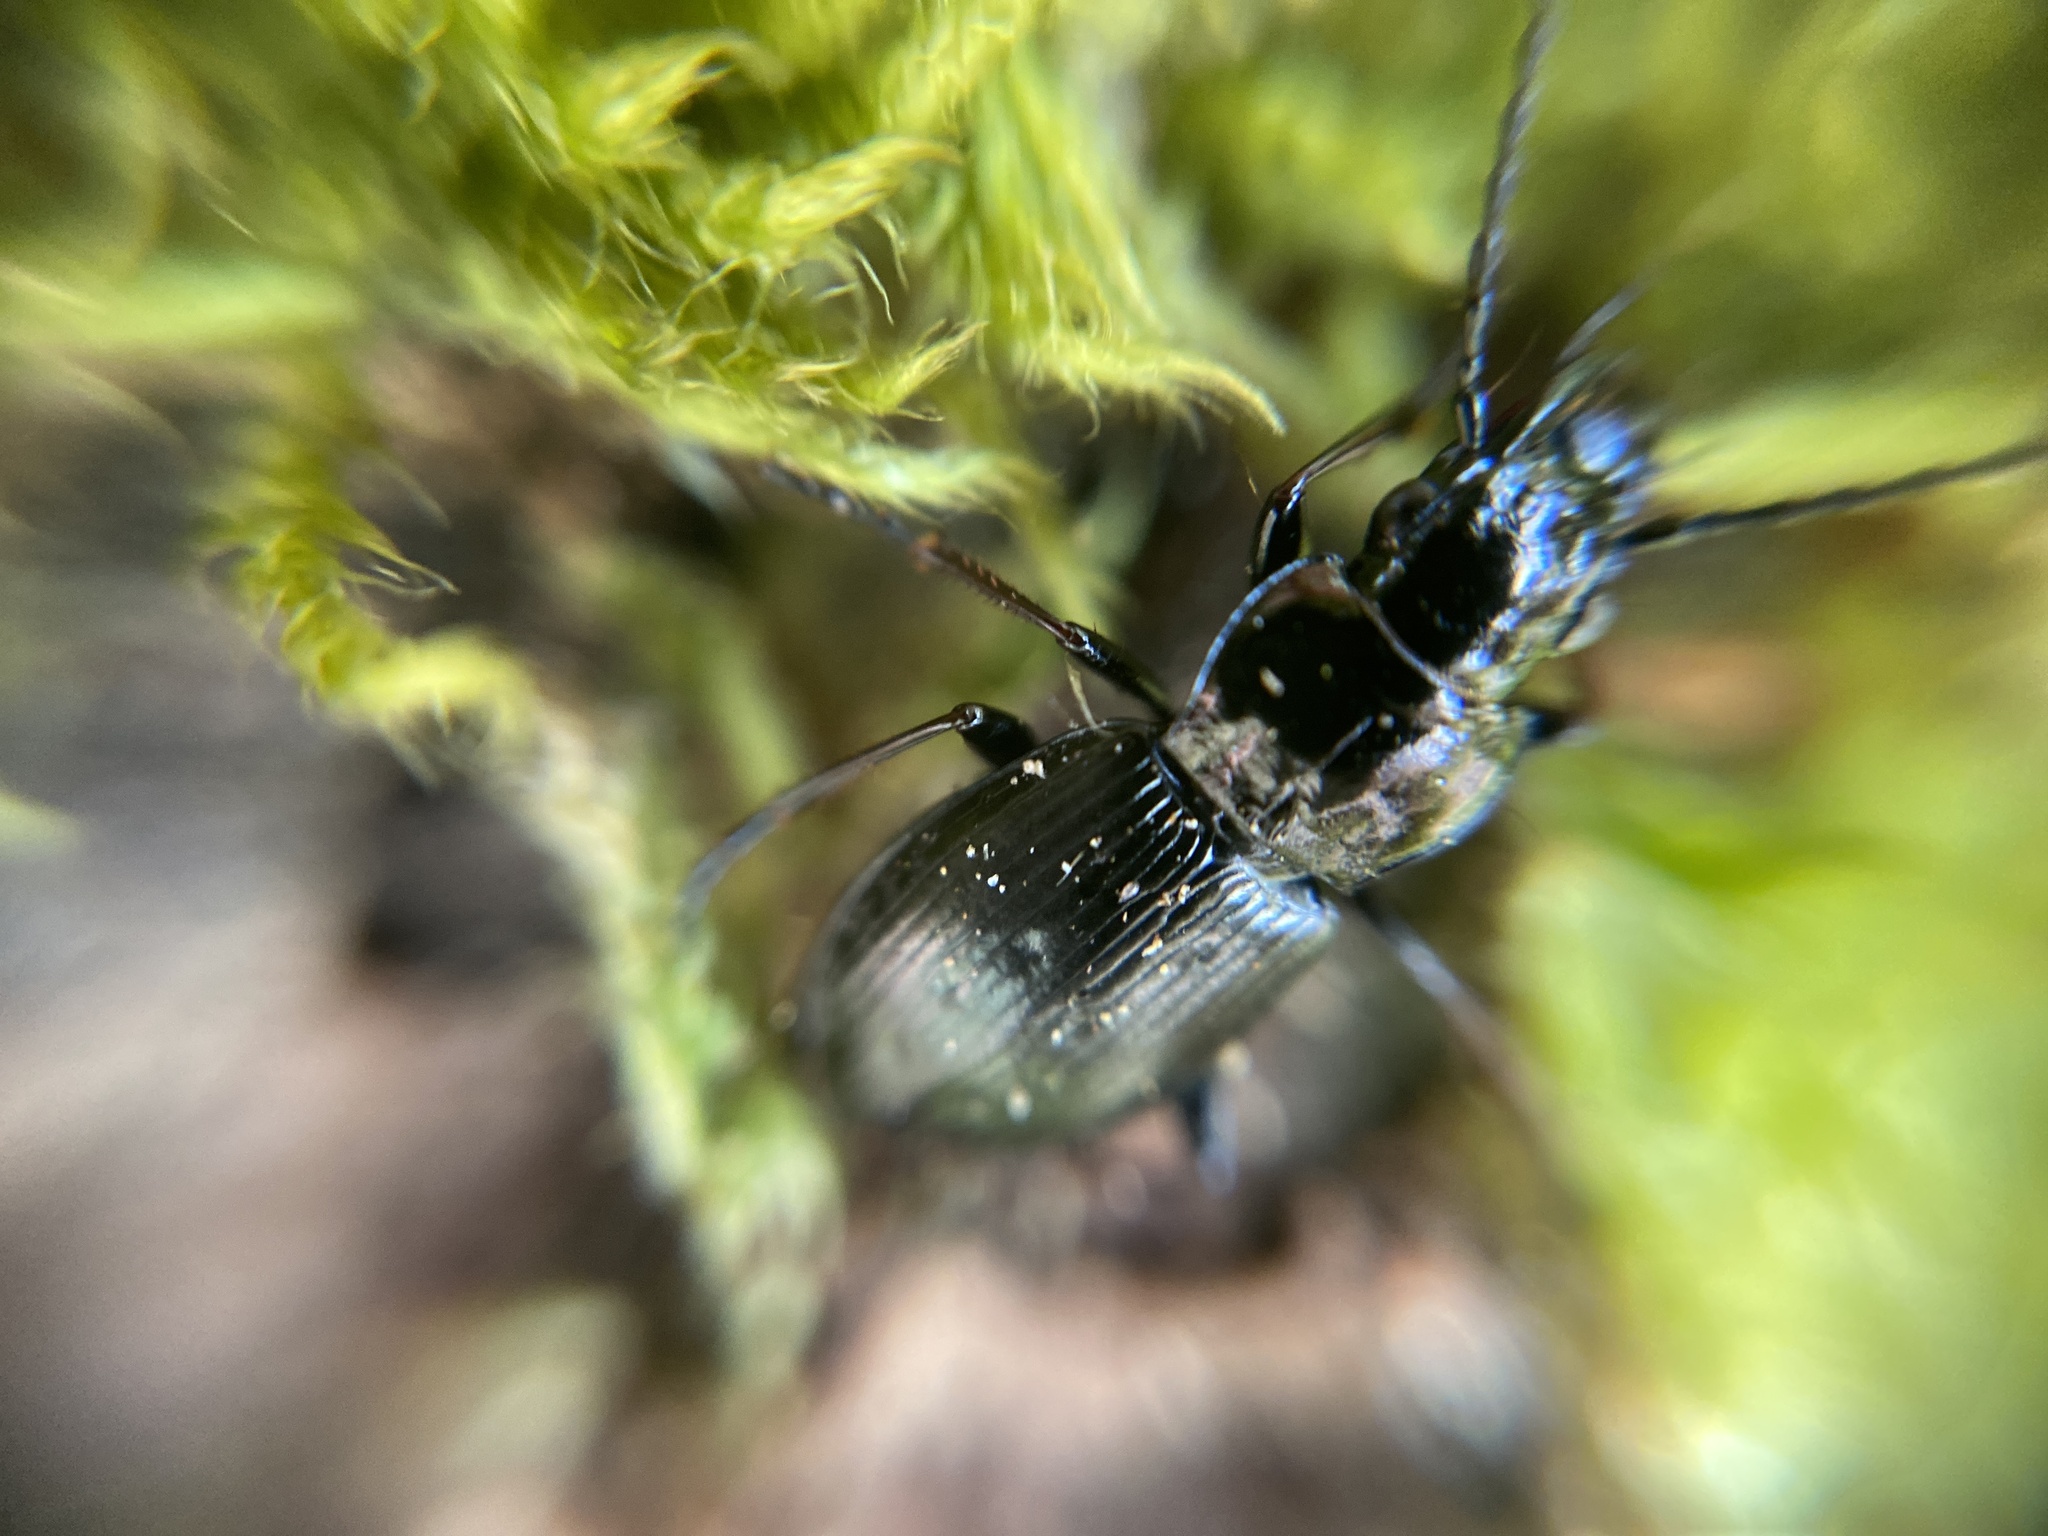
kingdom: Animalia
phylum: Arthropoda
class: Insecta
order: Coleoptera
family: Carabidae
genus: Pterostichus
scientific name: Pterostichus oblongopunctatus
